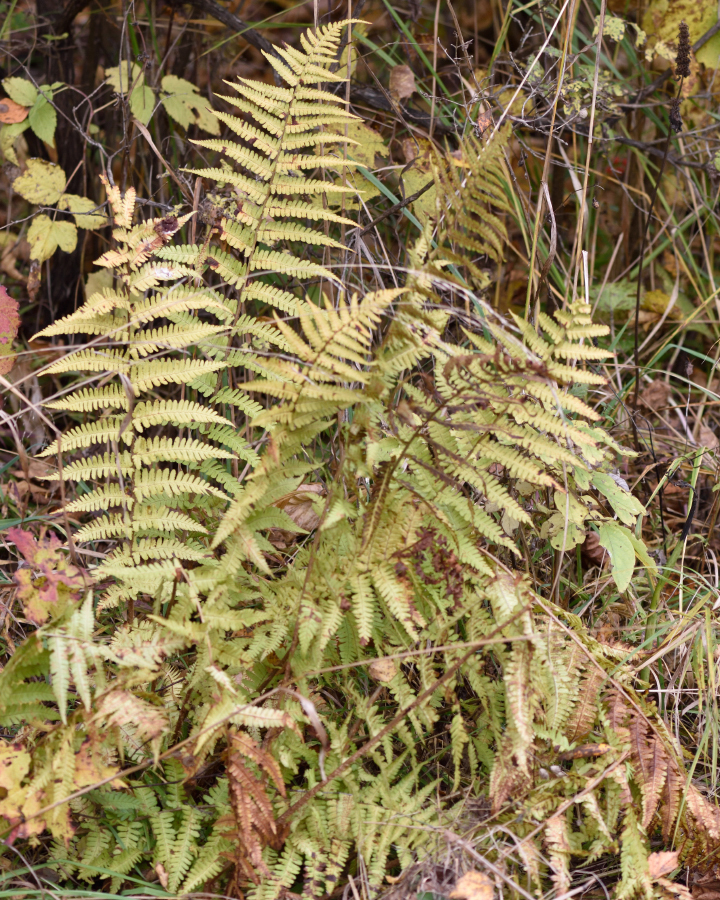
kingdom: Plantae
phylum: Tracheophyta
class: Polypodiopsida
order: Polypodiales
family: Dryopteridaceae
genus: Dryopteris
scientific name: Dryopteris filix-mas
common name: Male fern
